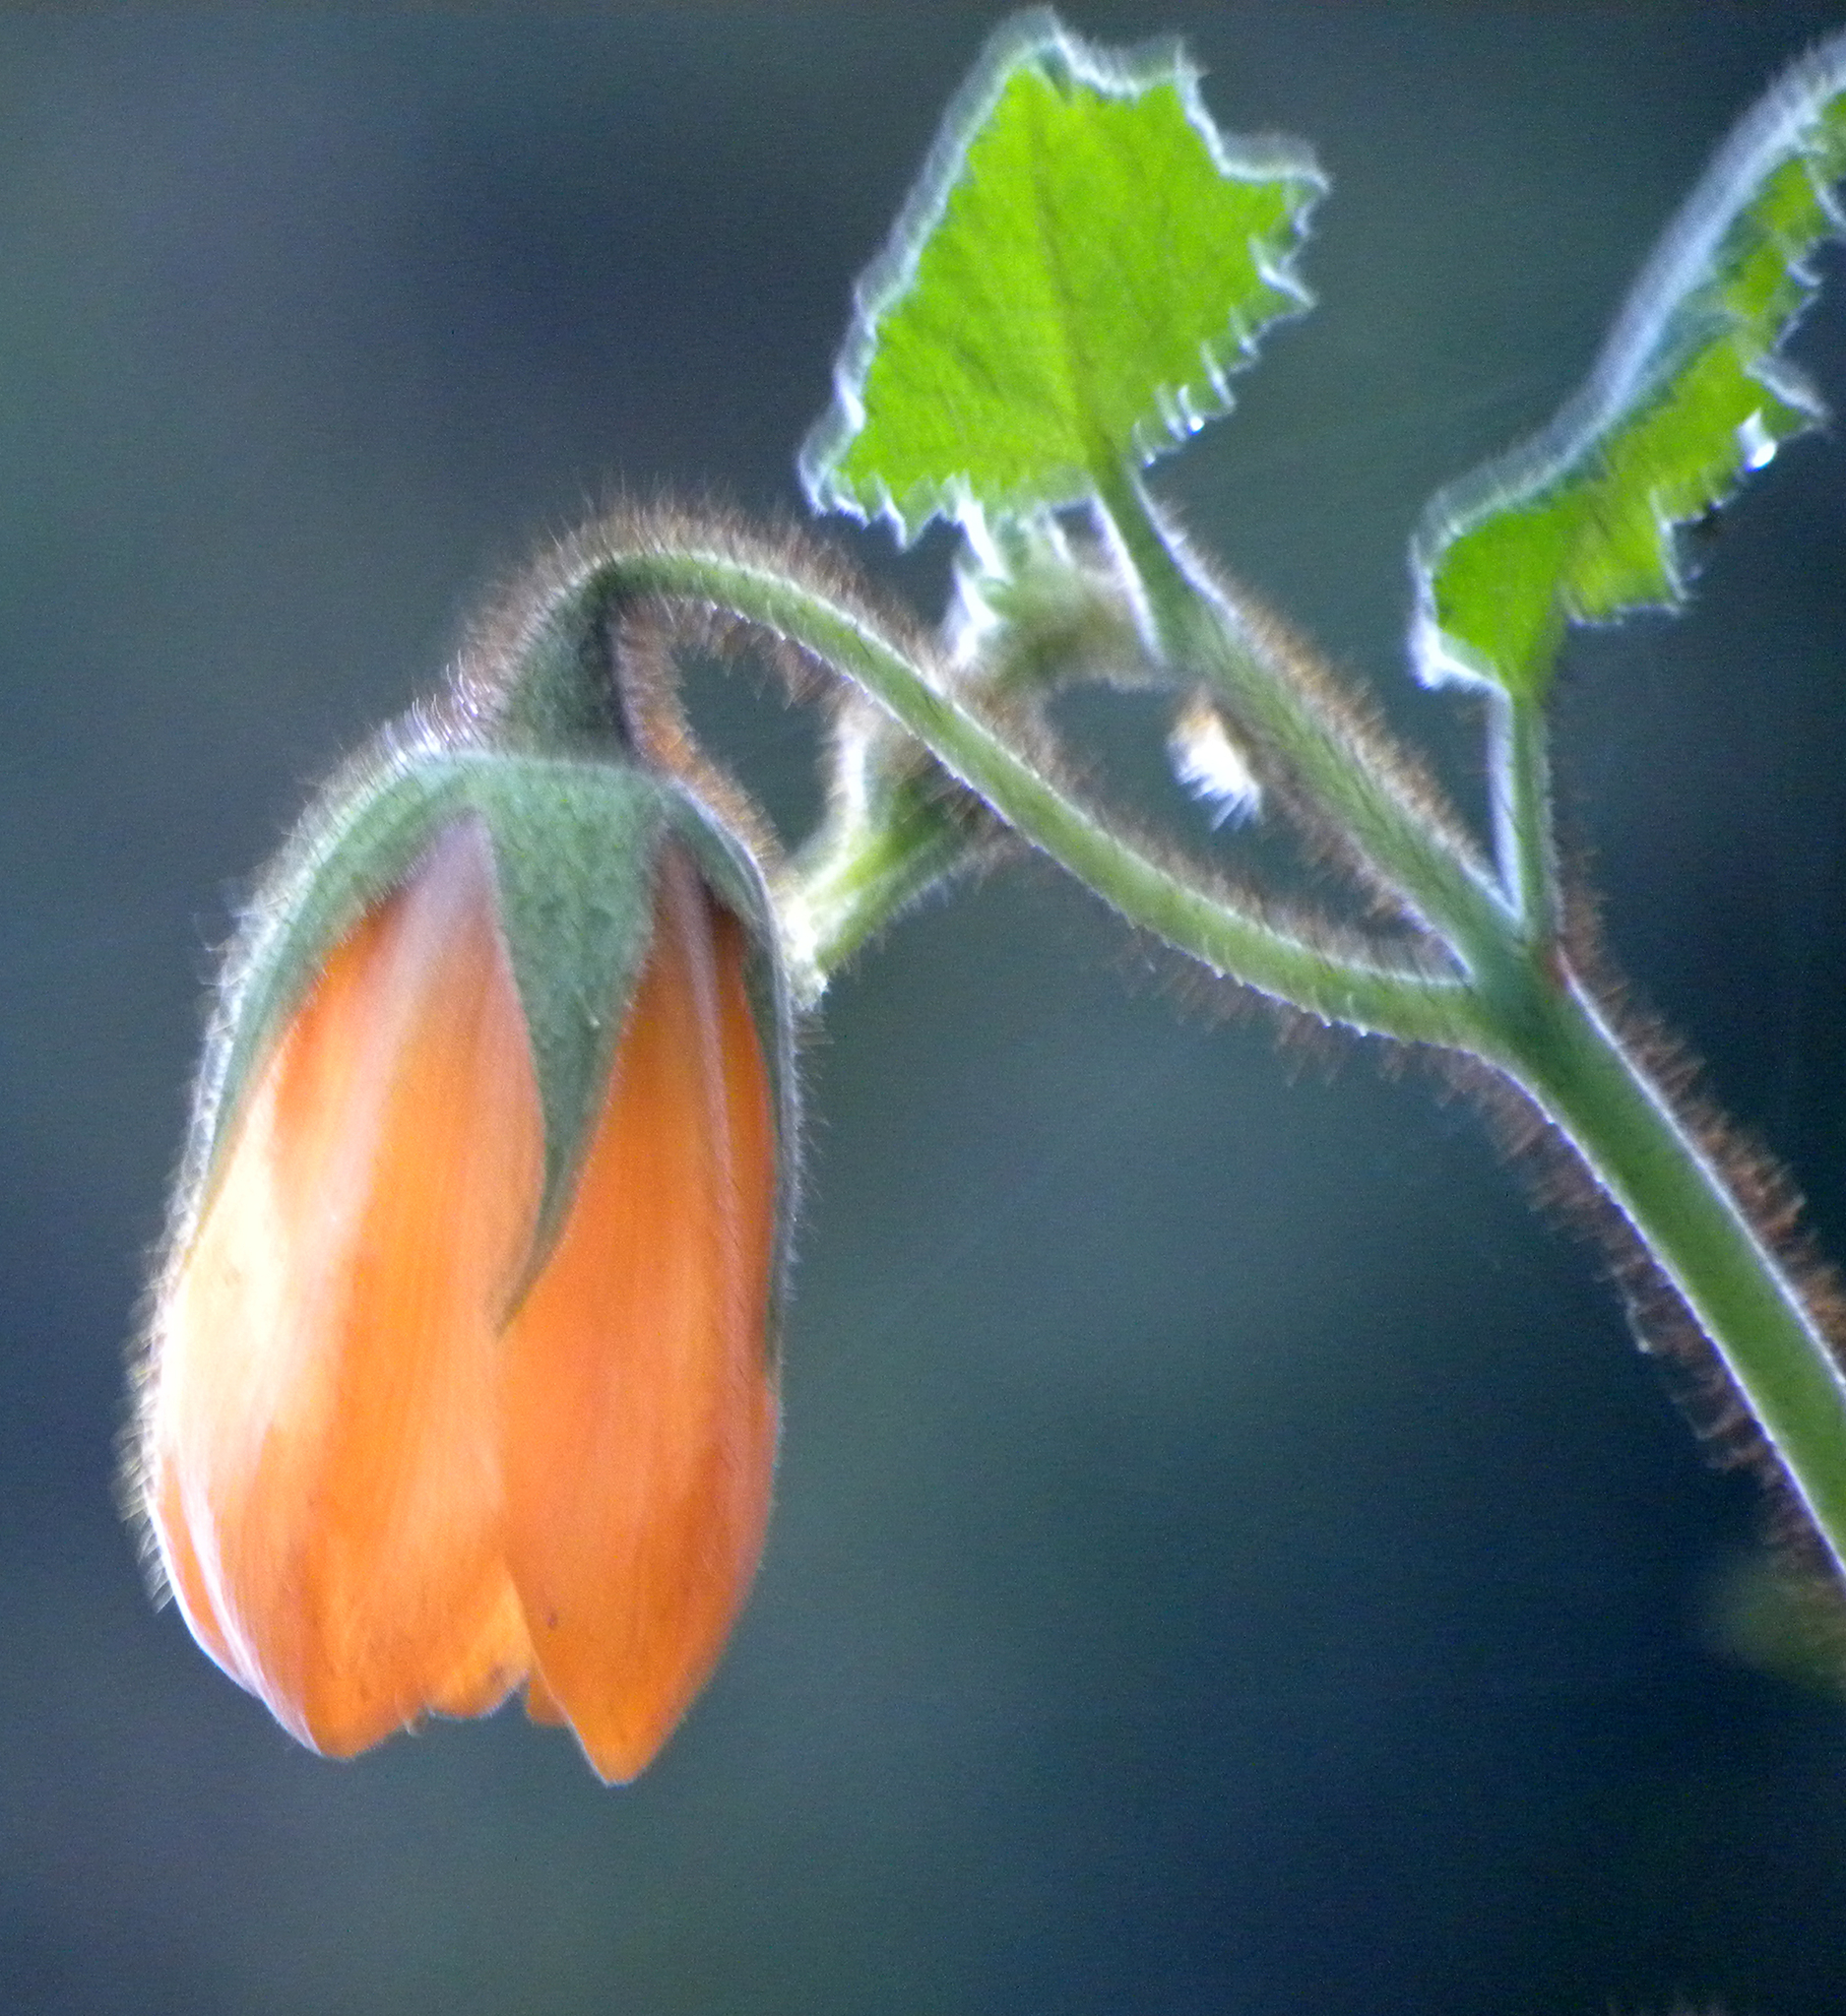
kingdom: Plantae
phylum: Tracheophyta
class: Magnoliopsida
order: Cornales
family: Loasaceae
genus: Nasa
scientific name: Nasa speciosa
